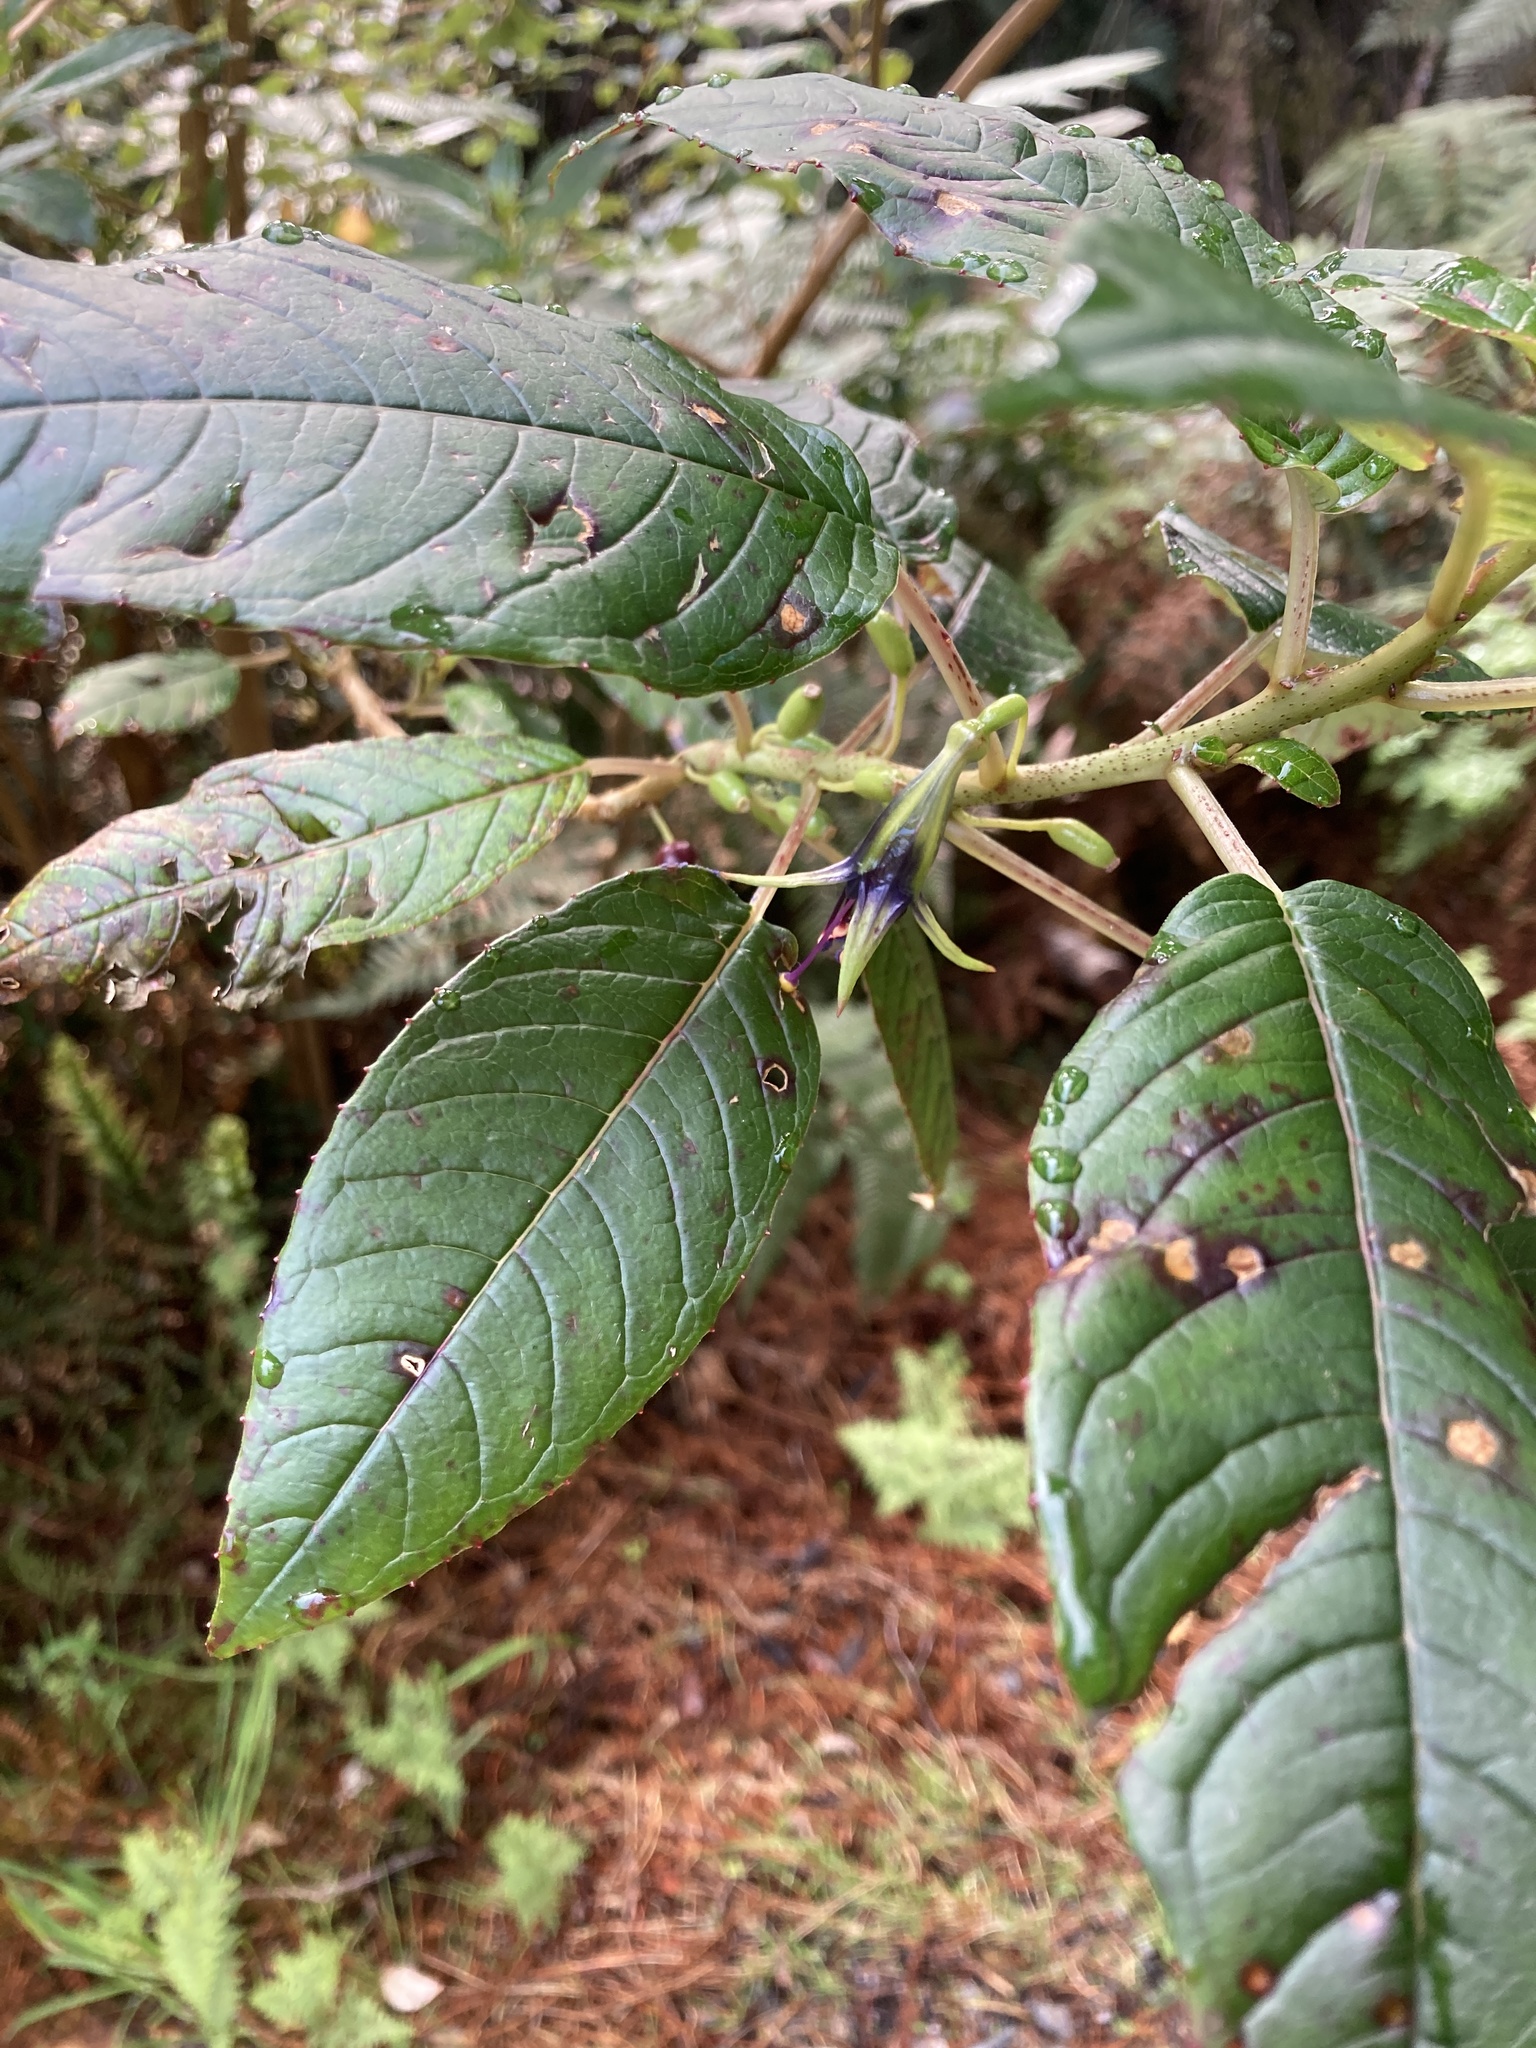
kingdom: Plantae
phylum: Tracheophyta
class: Magnoliopsida
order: Myrtales
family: Onagraceae
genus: Fuchsia
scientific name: Fuchsia excorticata
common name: Tree fuchsia
